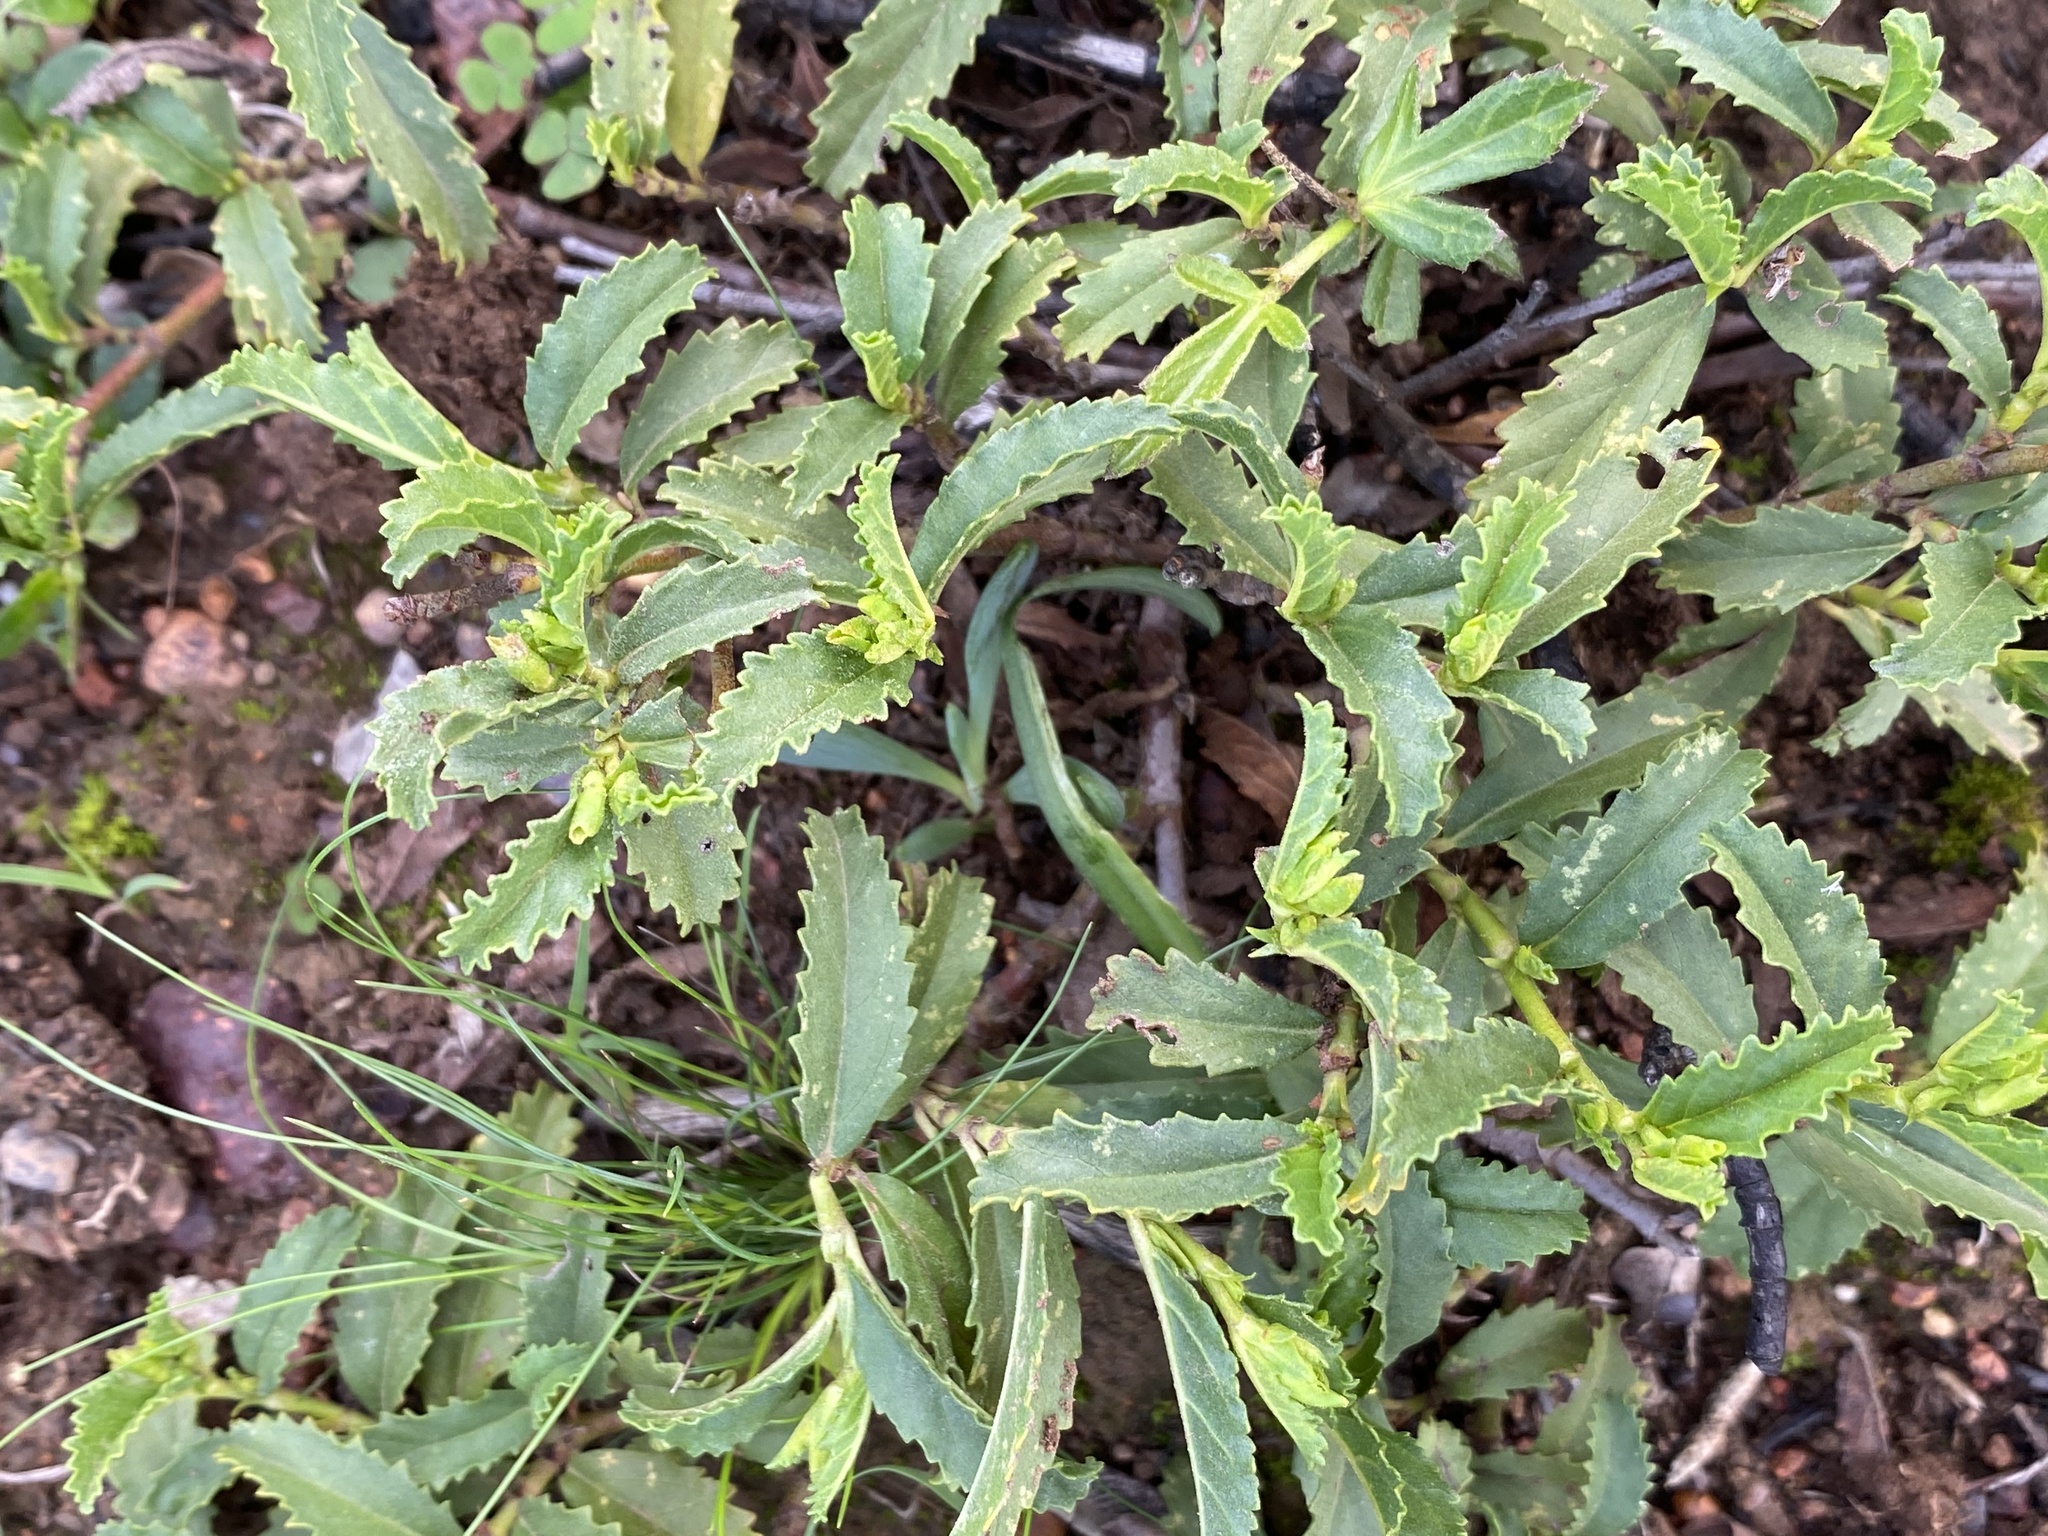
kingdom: Plantae
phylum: Tracheophyta
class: Magnoliopsida
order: Malvales
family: Malvaceae
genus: Hermannia
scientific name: Hermannia saccifera
